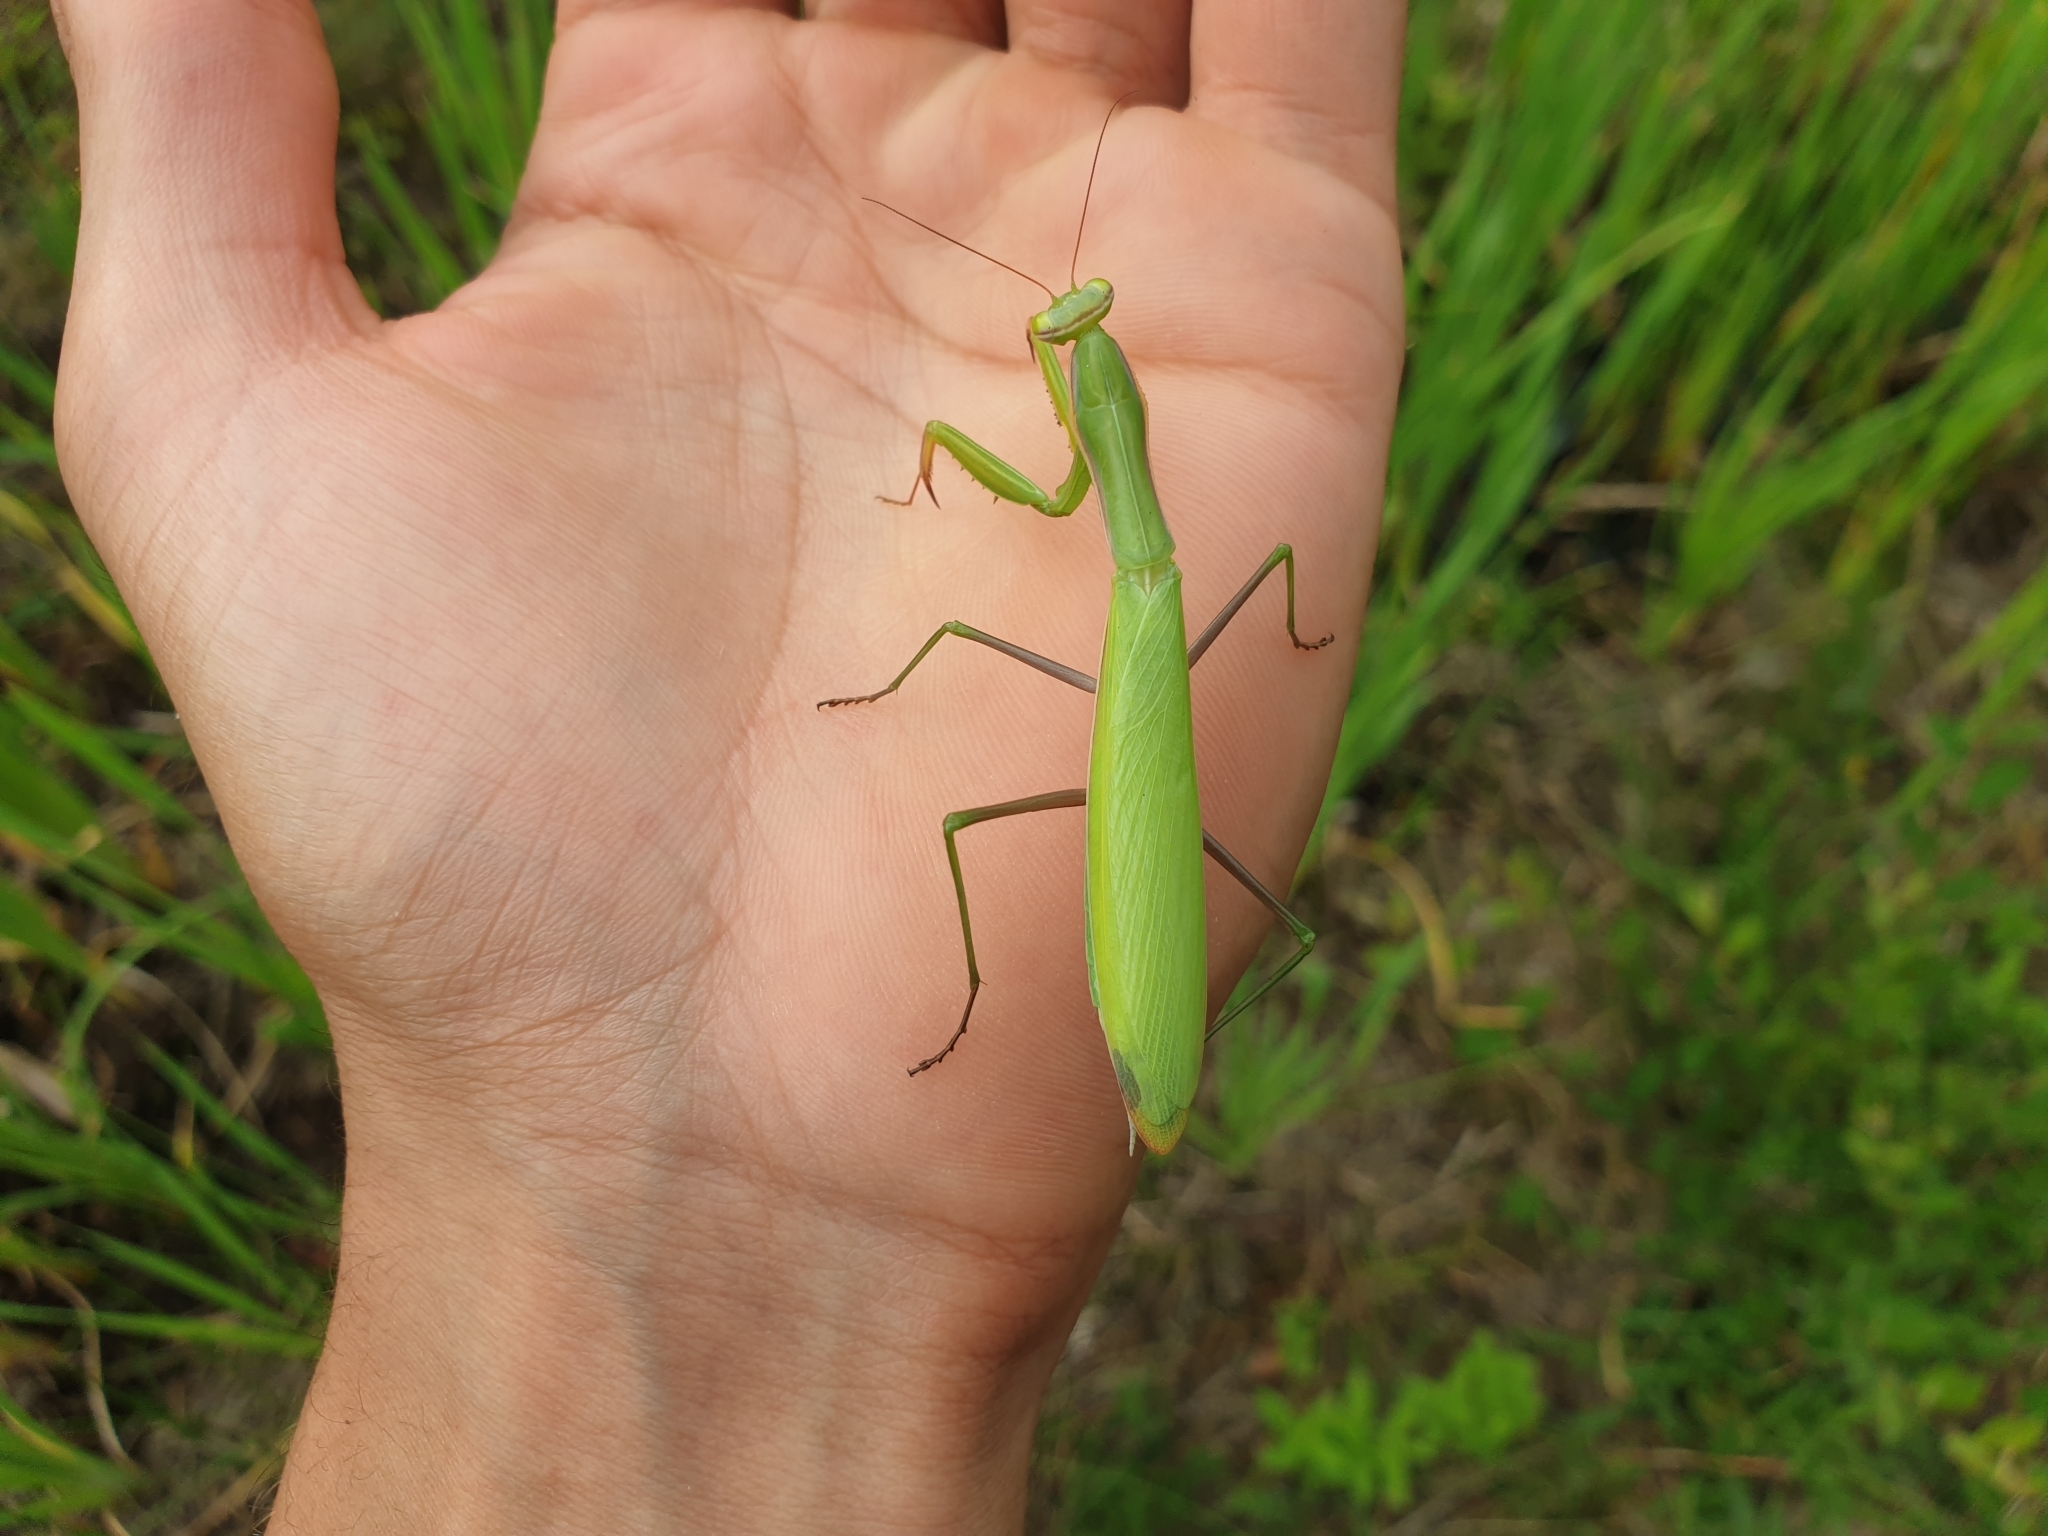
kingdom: Animalia
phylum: Arthropoda
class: Insecta
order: Mantodea
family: Mantidae
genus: Mantis
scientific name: Mantis religiosa
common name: Praying mantis
